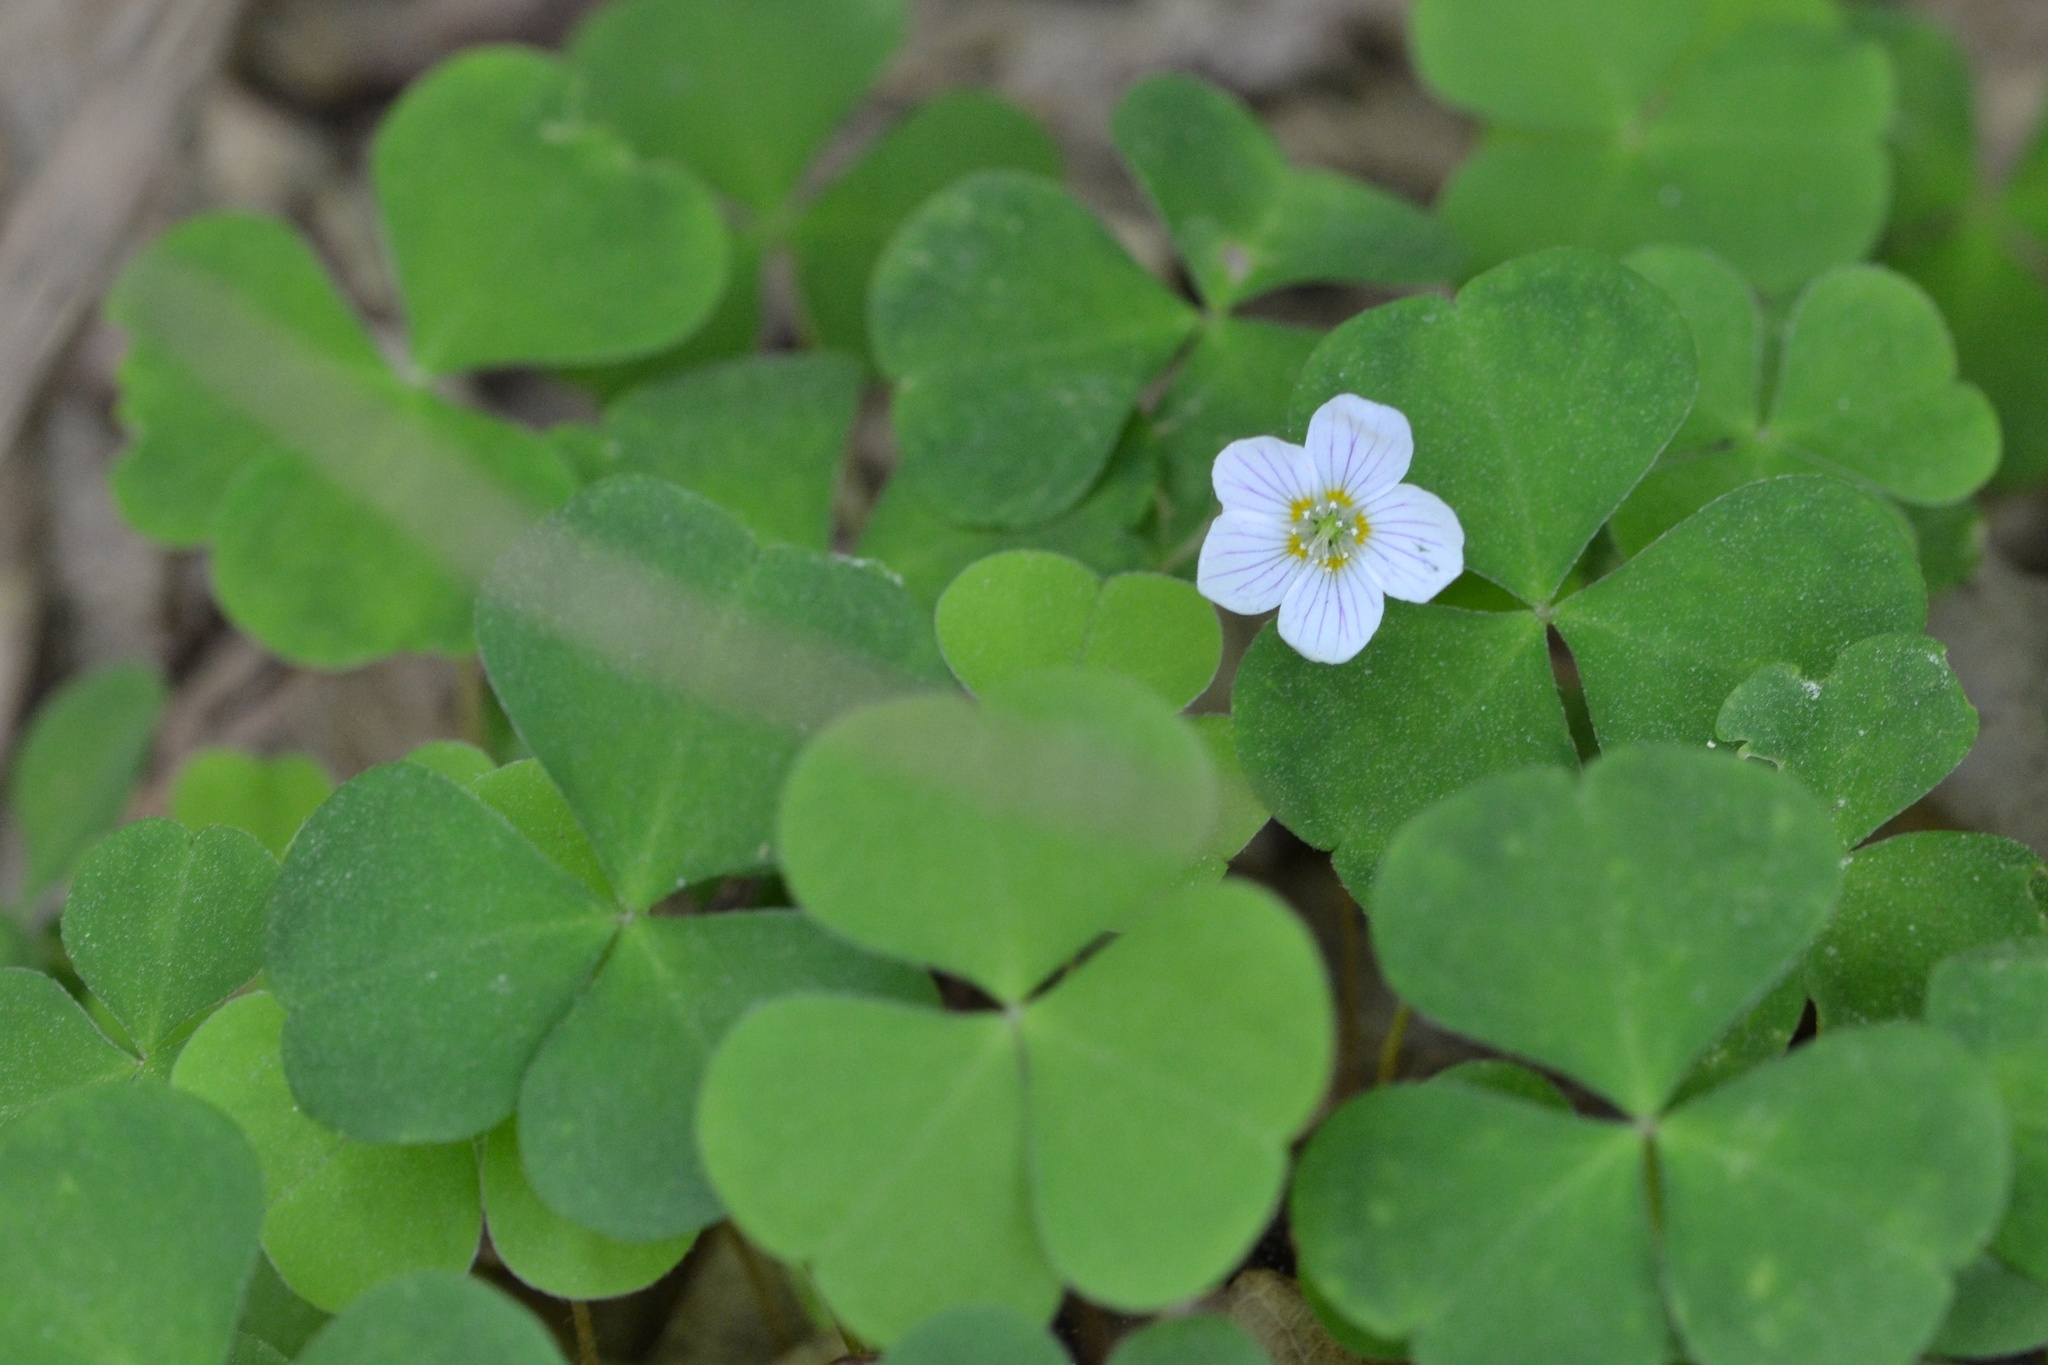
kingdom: Plantae
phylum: Tracheophyta
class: Magnoliopsida
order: Oxalidales
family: Oxalidaceae
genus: Oxalis
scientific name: Oxalis acetosella
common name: Wood-sorrel
